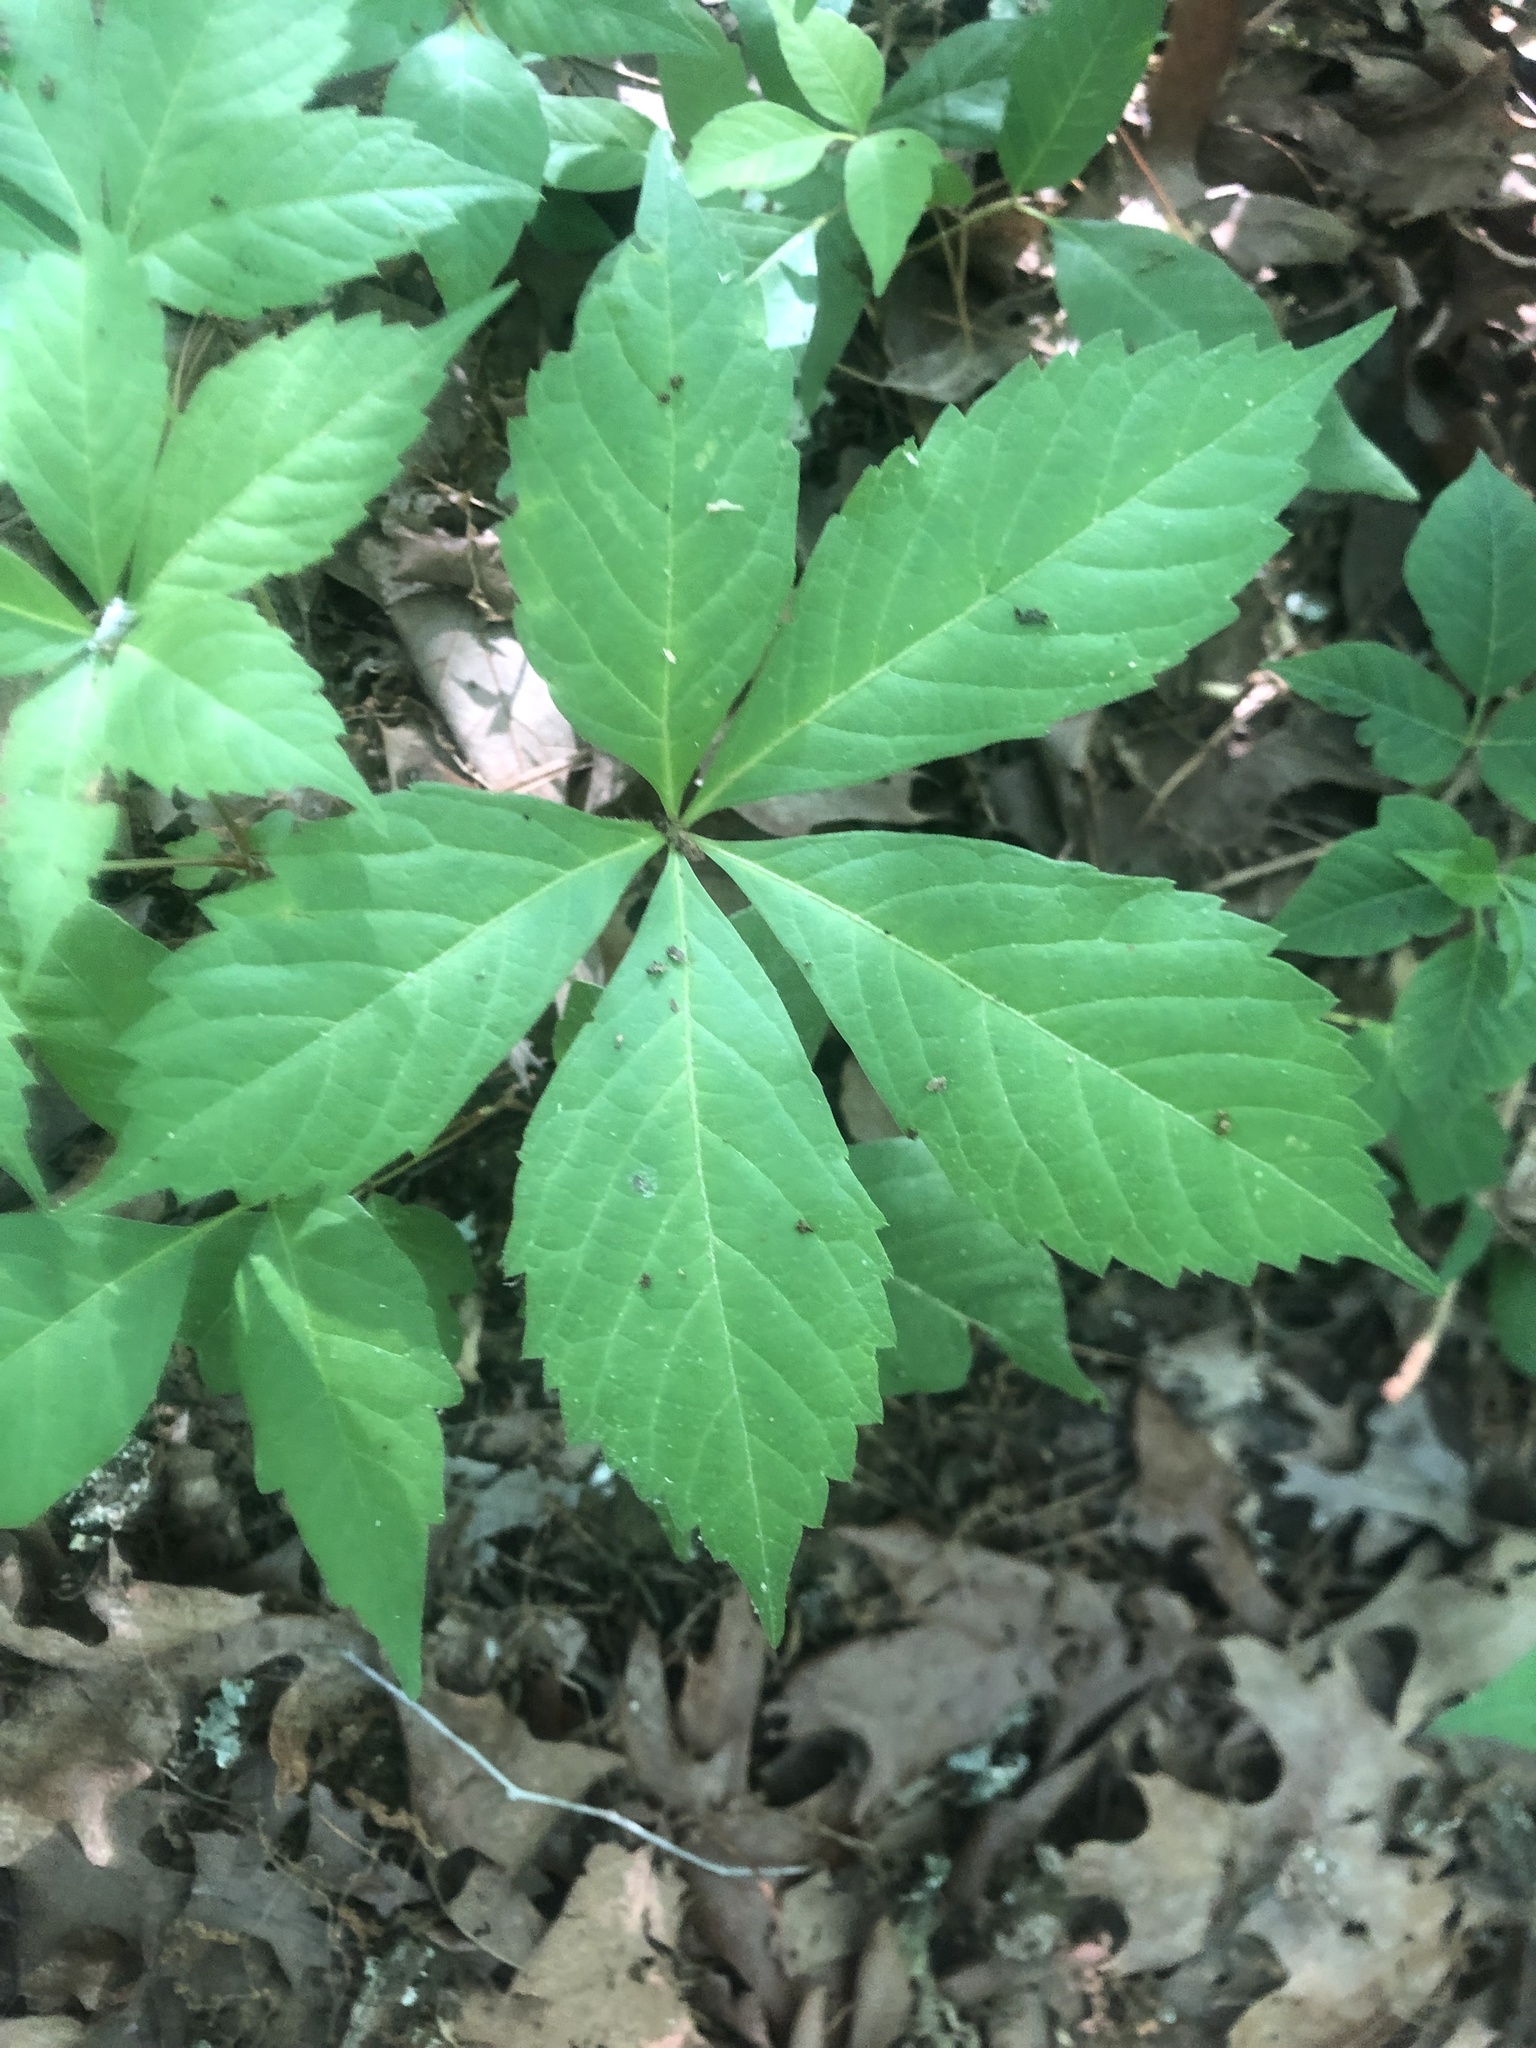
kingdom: Plantae
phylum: Tracheophyta
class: Magnoliopsida
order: Vitales
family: Vitaceae
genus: Parthenocissus
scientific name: Parthenocissus quinquefolia
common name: Virginia-creeper
